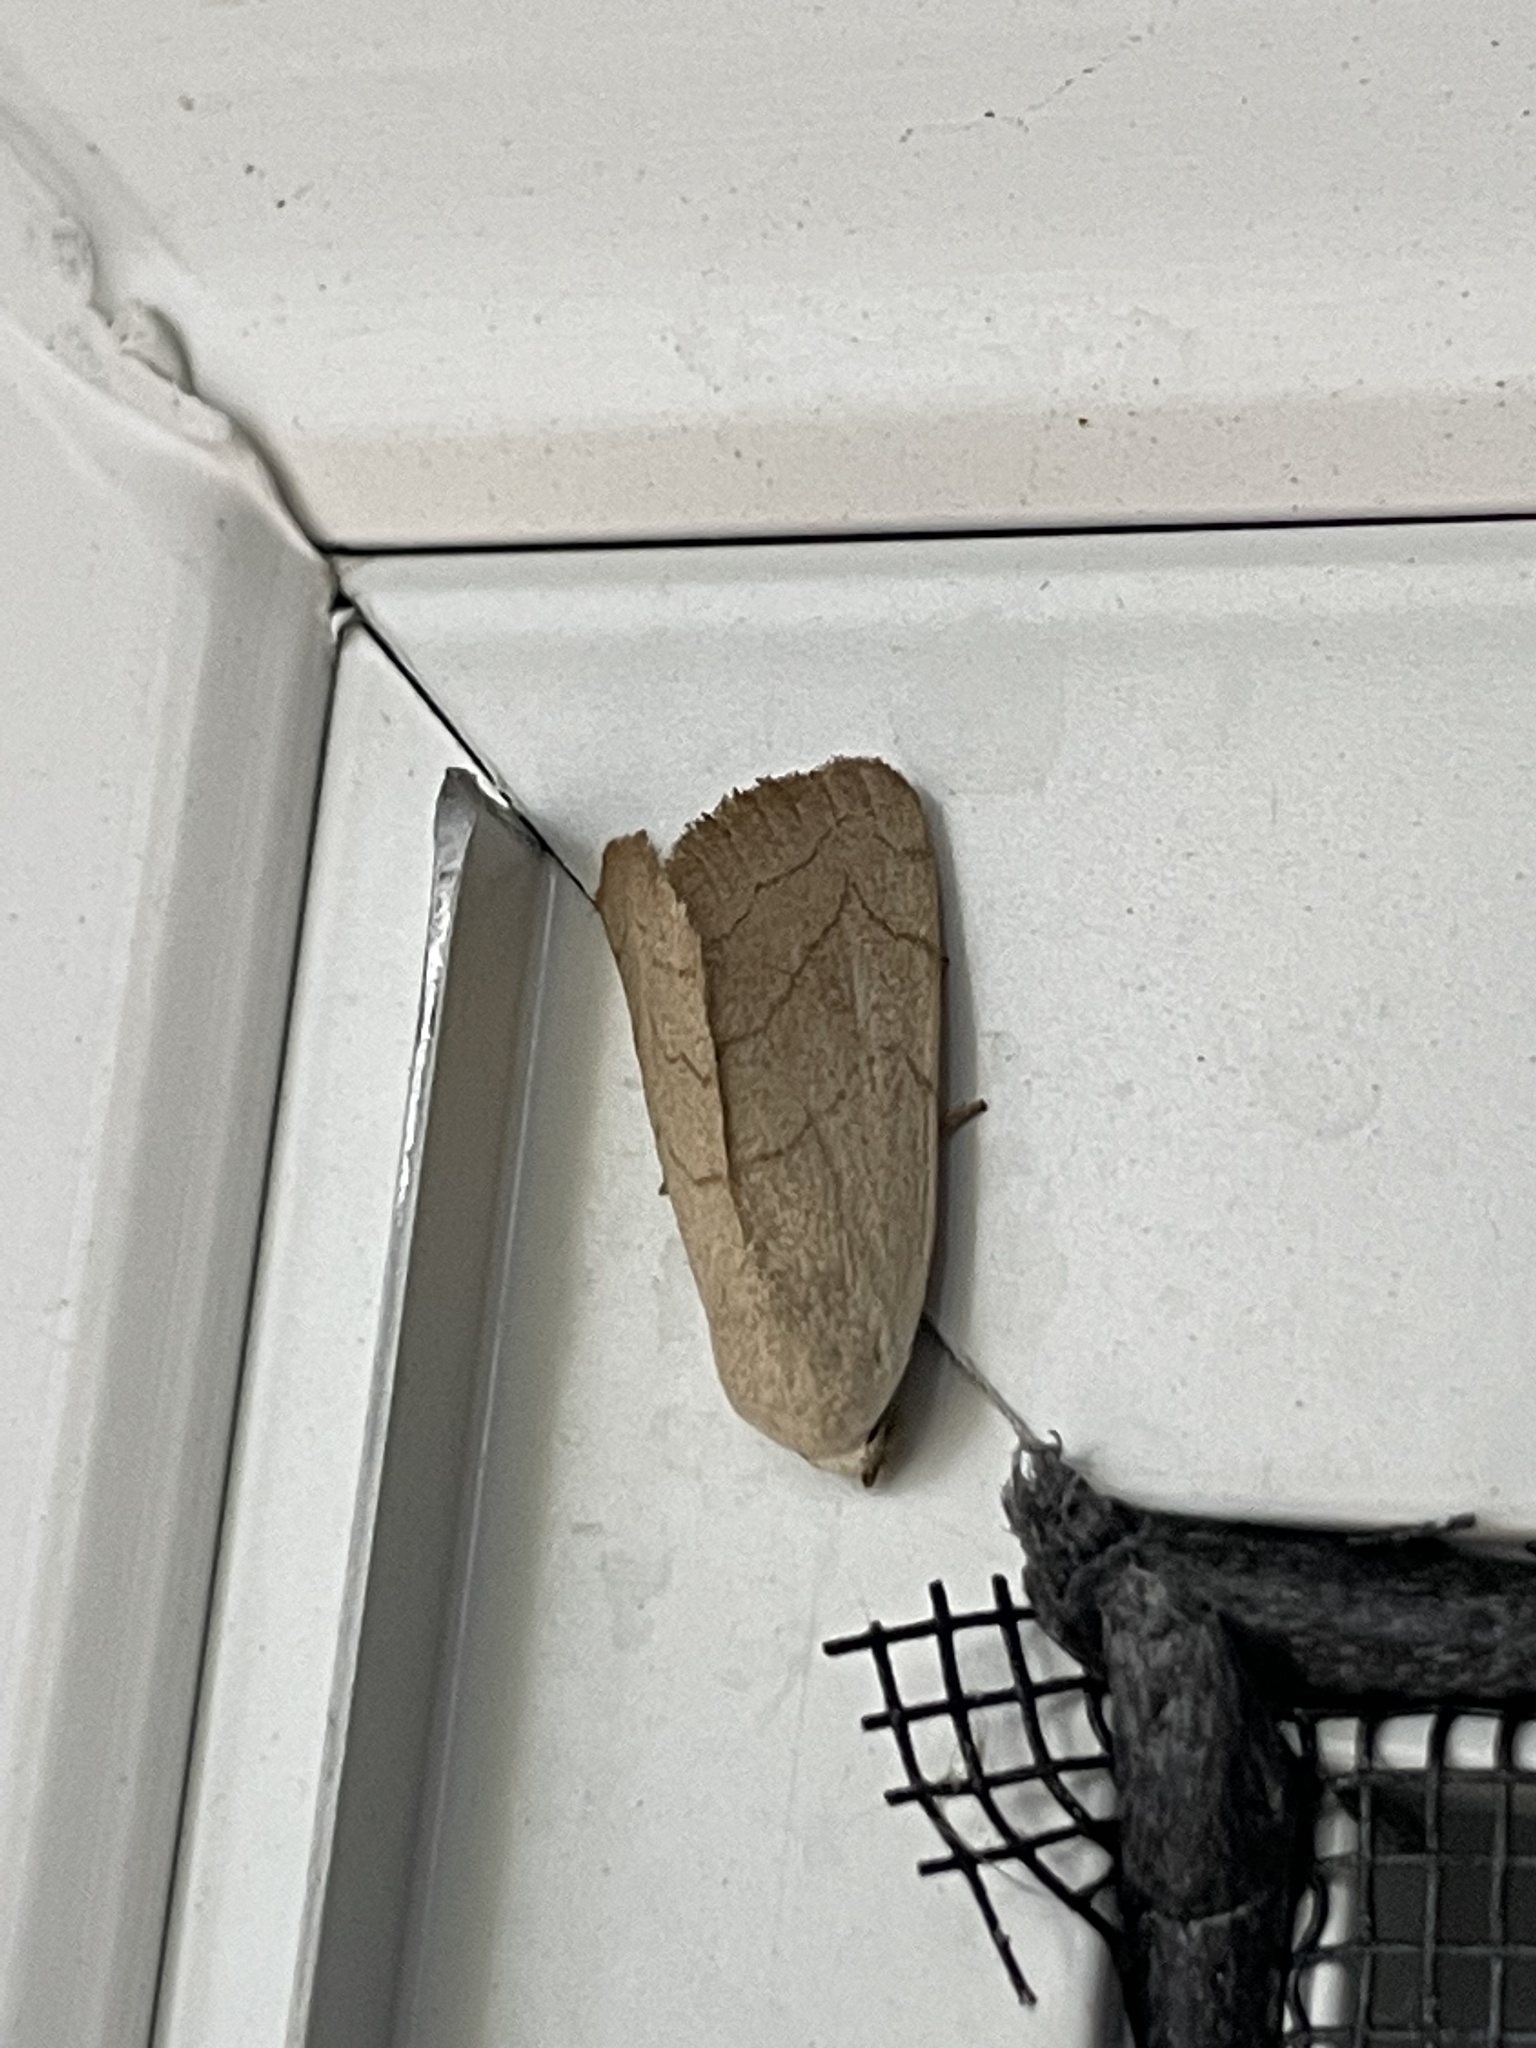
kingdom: Animalia
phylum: Arthropoda
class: Insecta
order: Lepidoptera
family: Noctuidae
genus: Bagisara
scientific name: Bagisara buxea
